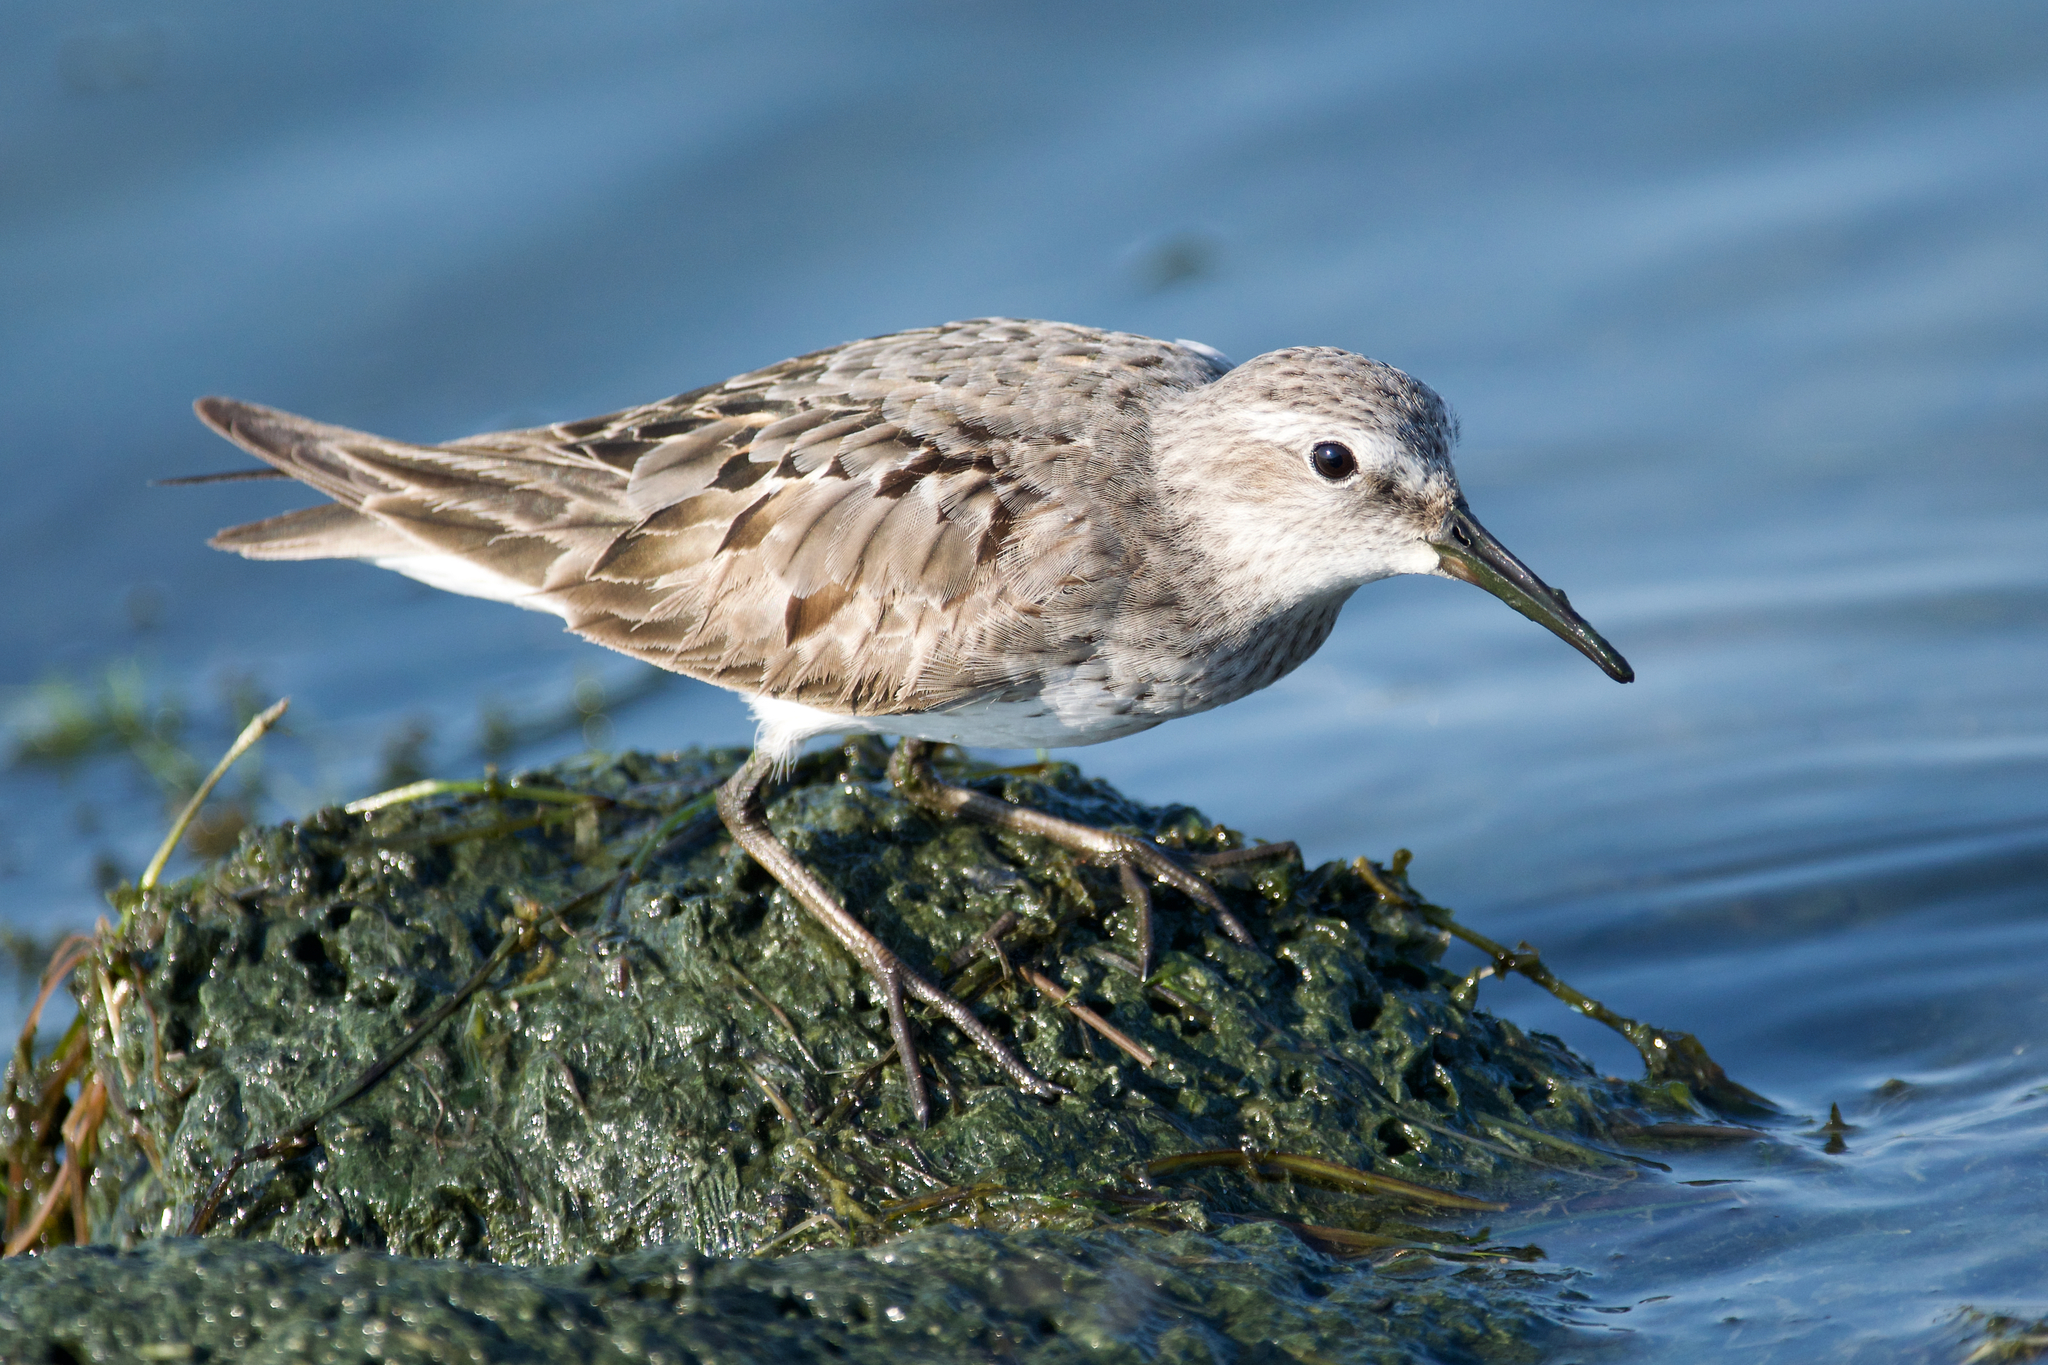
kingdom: Animalia
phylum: Chordata
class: Aves
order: Charadriiformes
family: Scolopacidae
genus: Calidris
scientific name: Calidris fuscicollis
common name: White-rumped sandpiper
